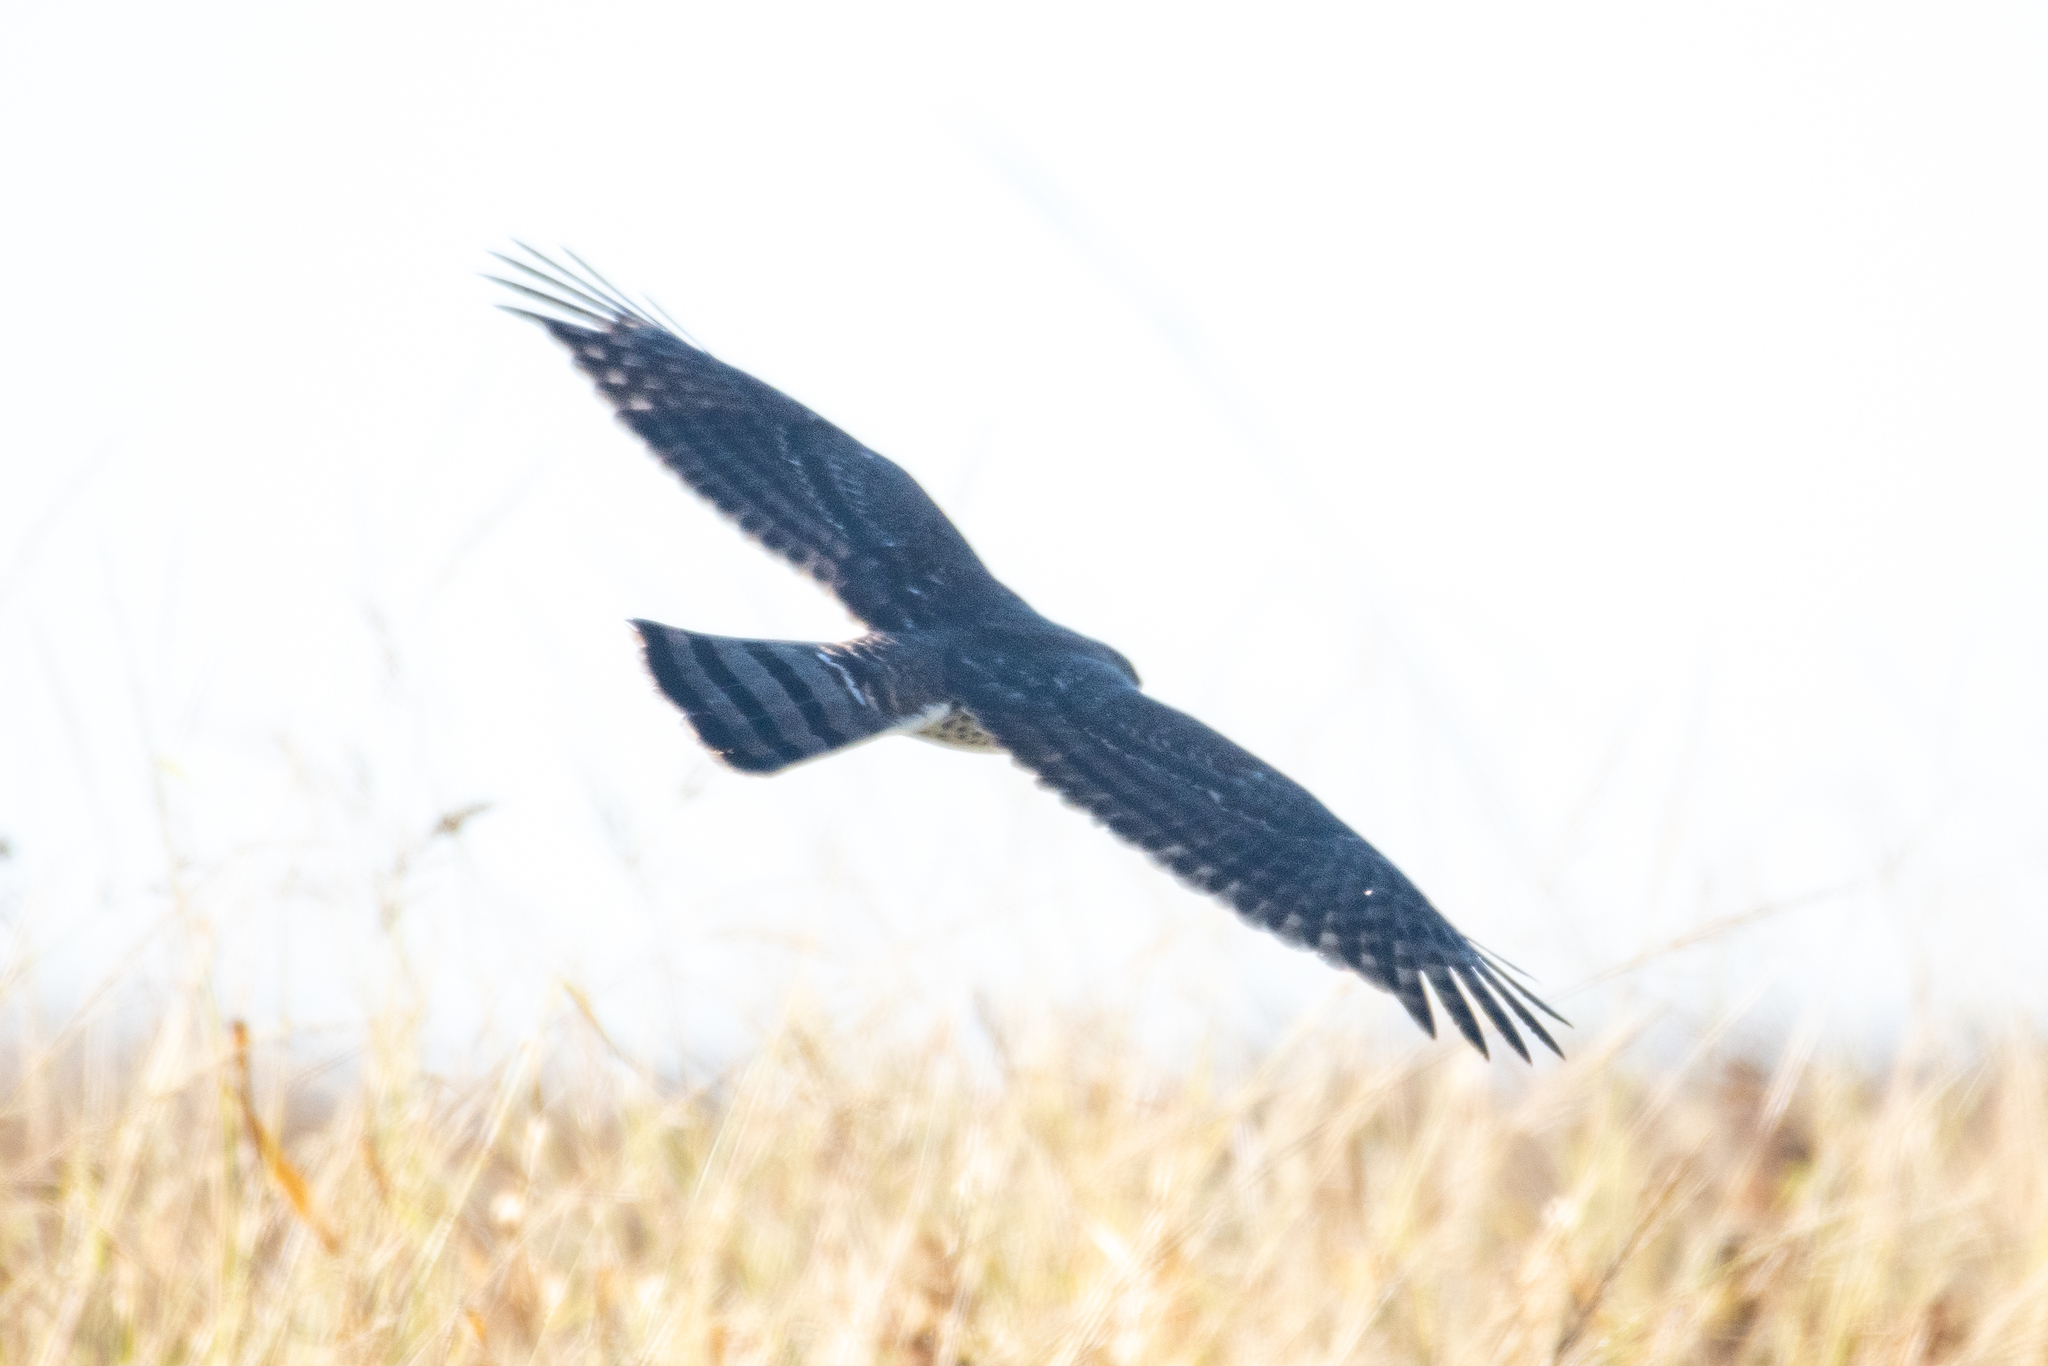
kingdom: Animalia
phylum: Chordata
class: Aves
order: Accipitriformes
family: Accipitridae
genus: Accipiter
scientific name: Accipiter cooperii
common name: Cooper's hawk
